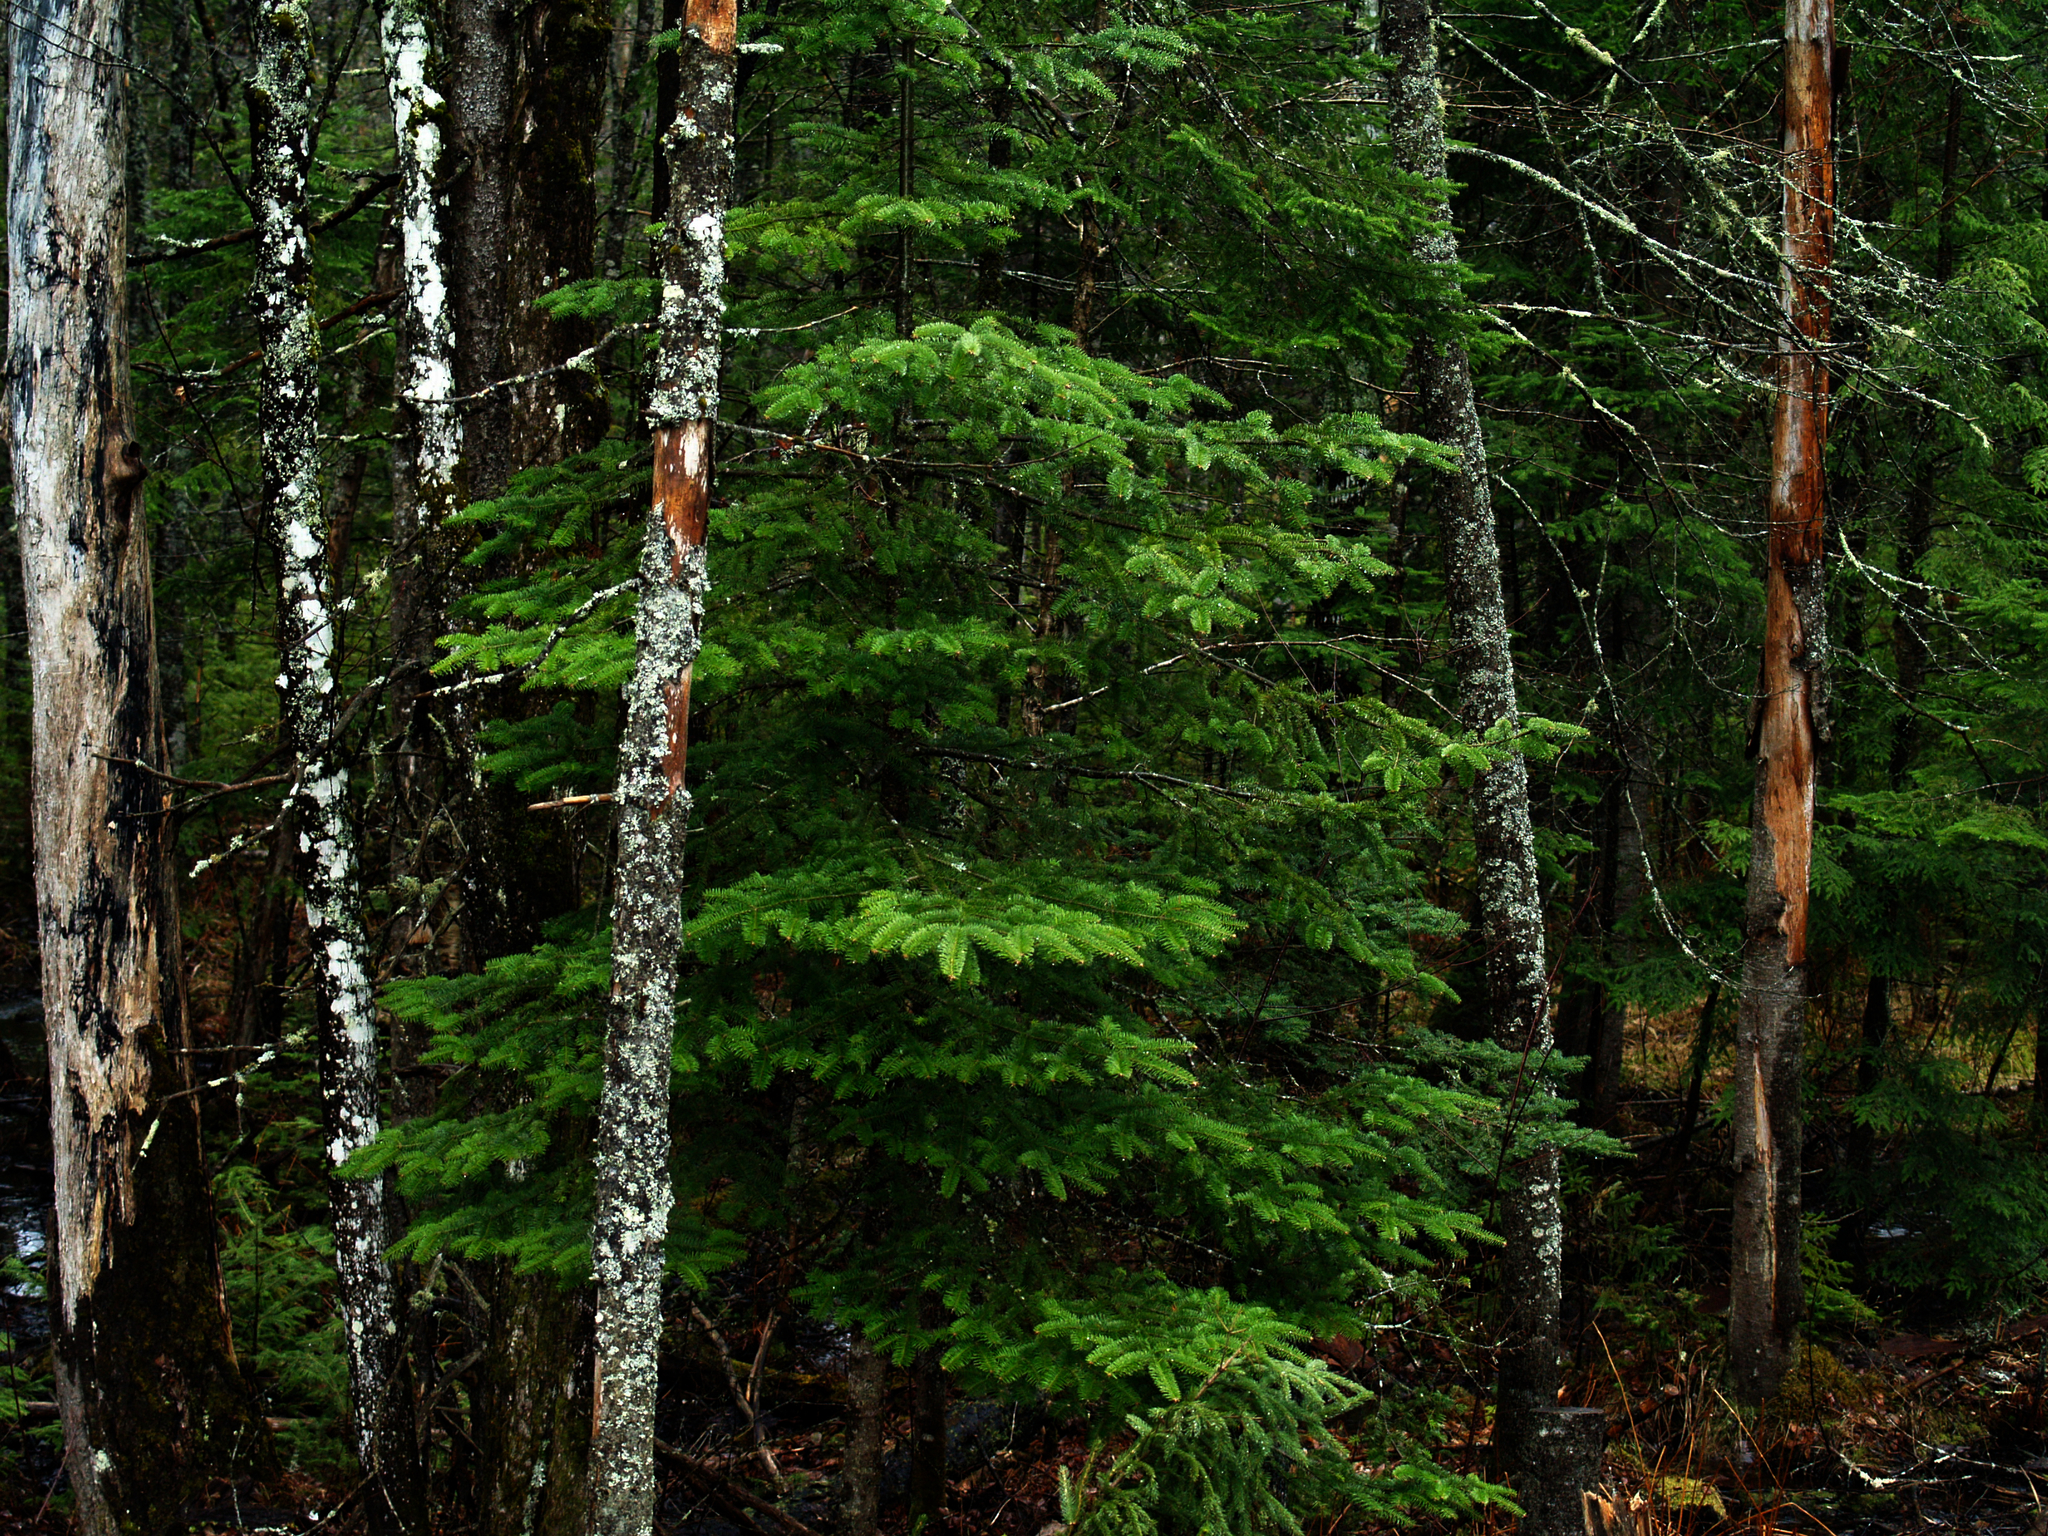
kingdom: Plantae
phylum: Tracheophyta
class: Pinopsida
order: Pinales
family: Pinaceae
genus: Abies
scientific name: Abies balsamea
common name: Balsam fir
